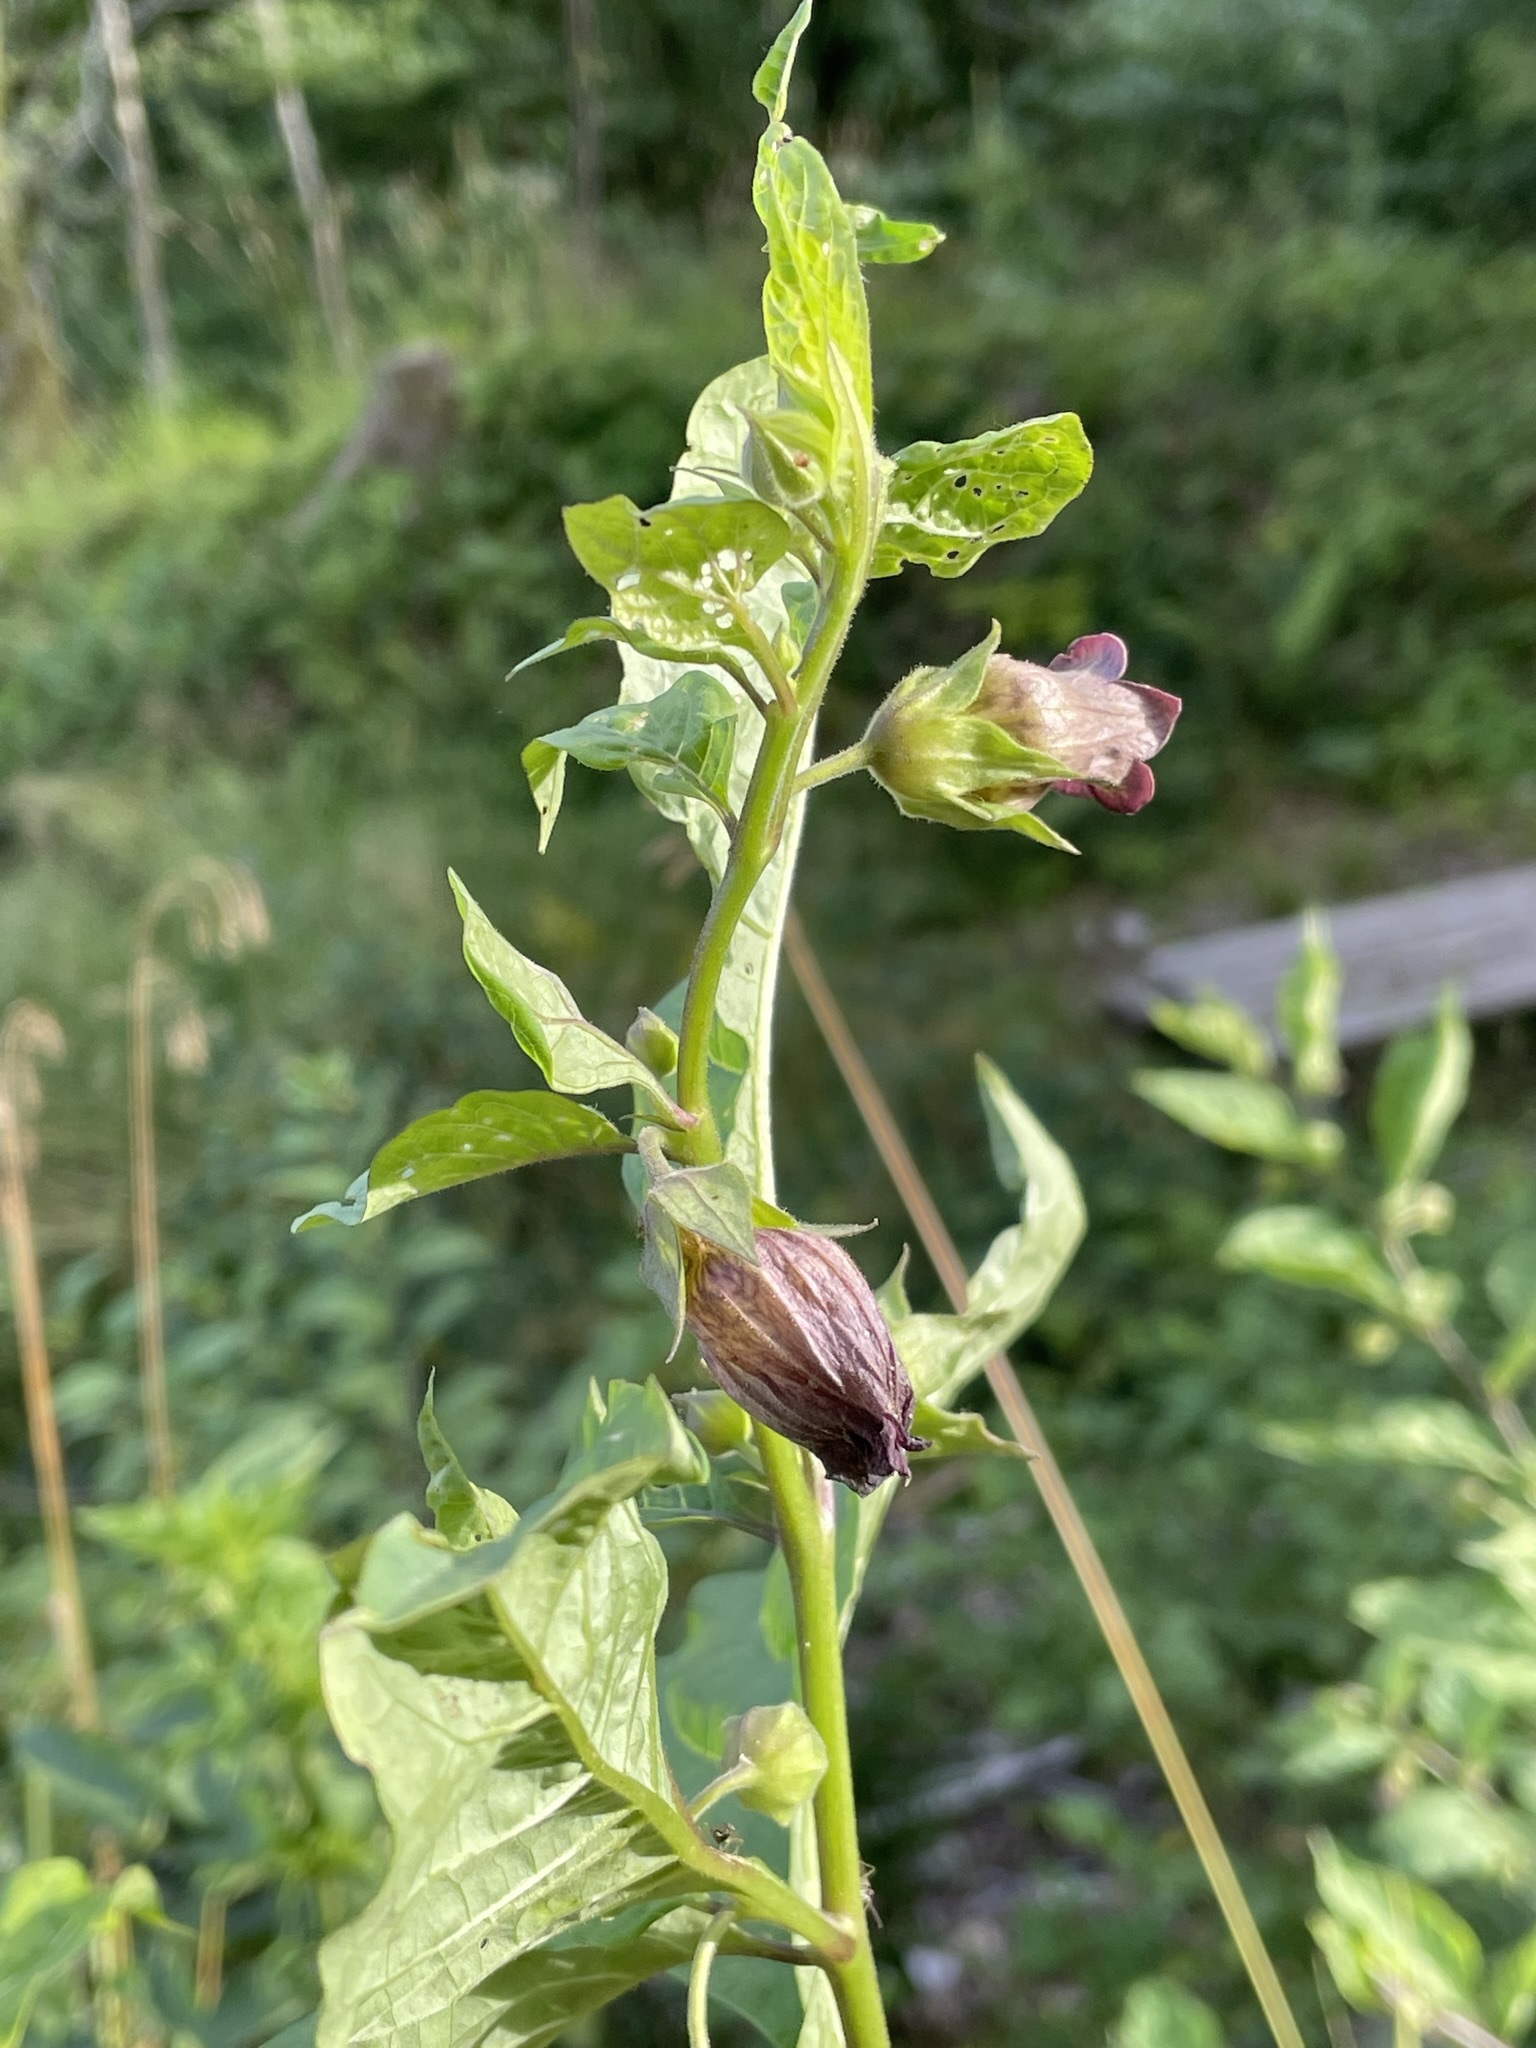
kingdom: Plantae
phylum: Tracheophyta
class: Magnoliopsida
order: Solanales
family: Solanaceae
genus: Atropa
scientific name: Atropa belladonna
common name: Deadly nightshade
